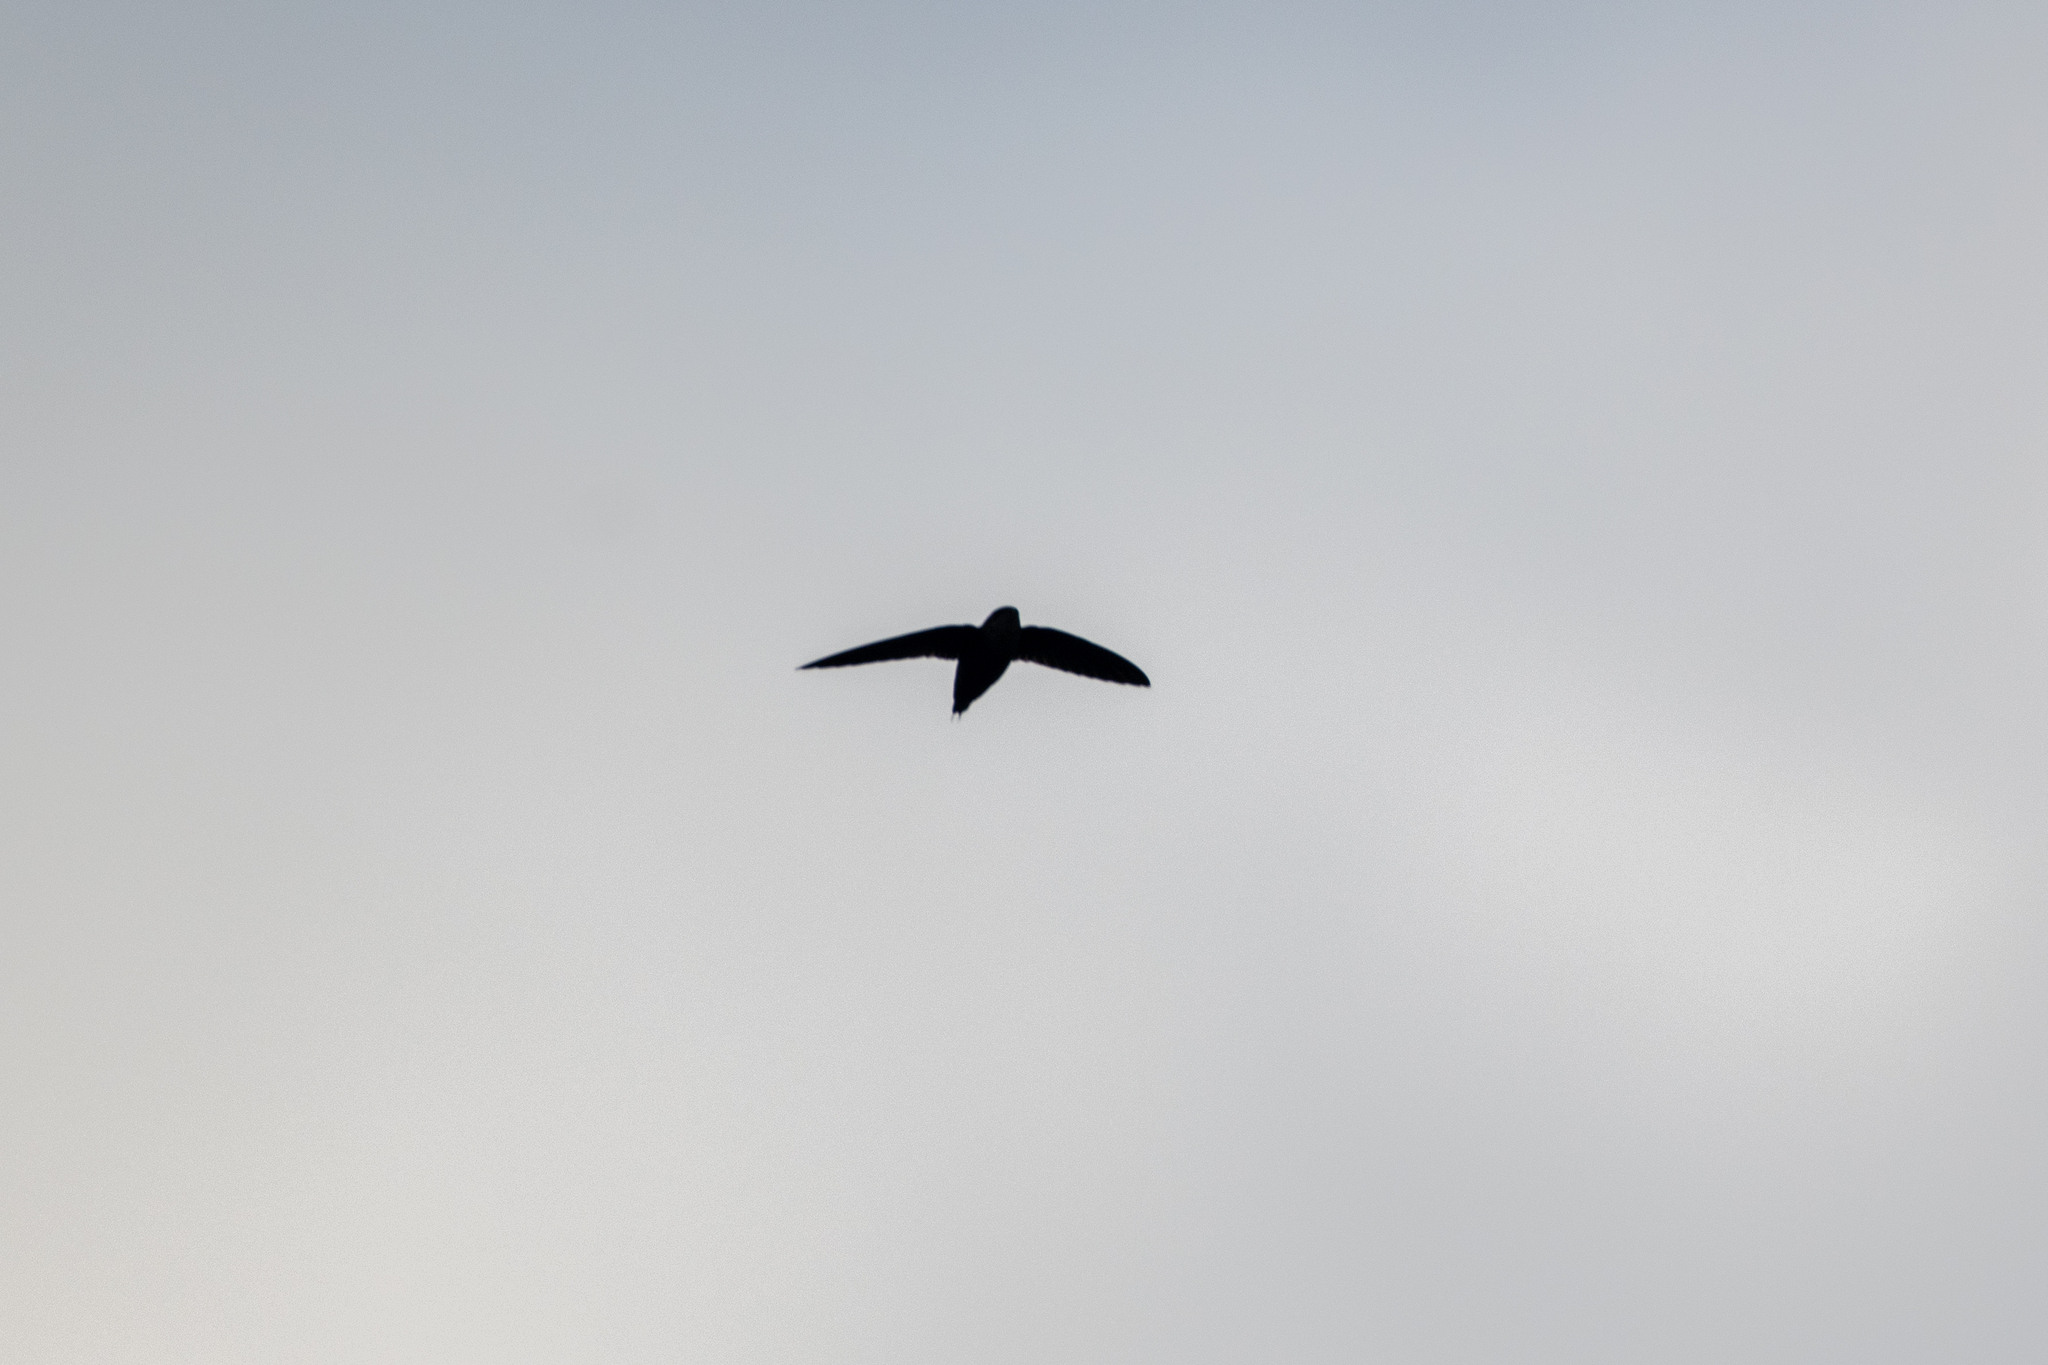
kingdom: Animalia
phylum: Chordata
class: Aves
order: Apodiformes
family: Apodidae
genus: Chaetura
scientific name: Chaetura vauxi
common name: Vaux's swift
